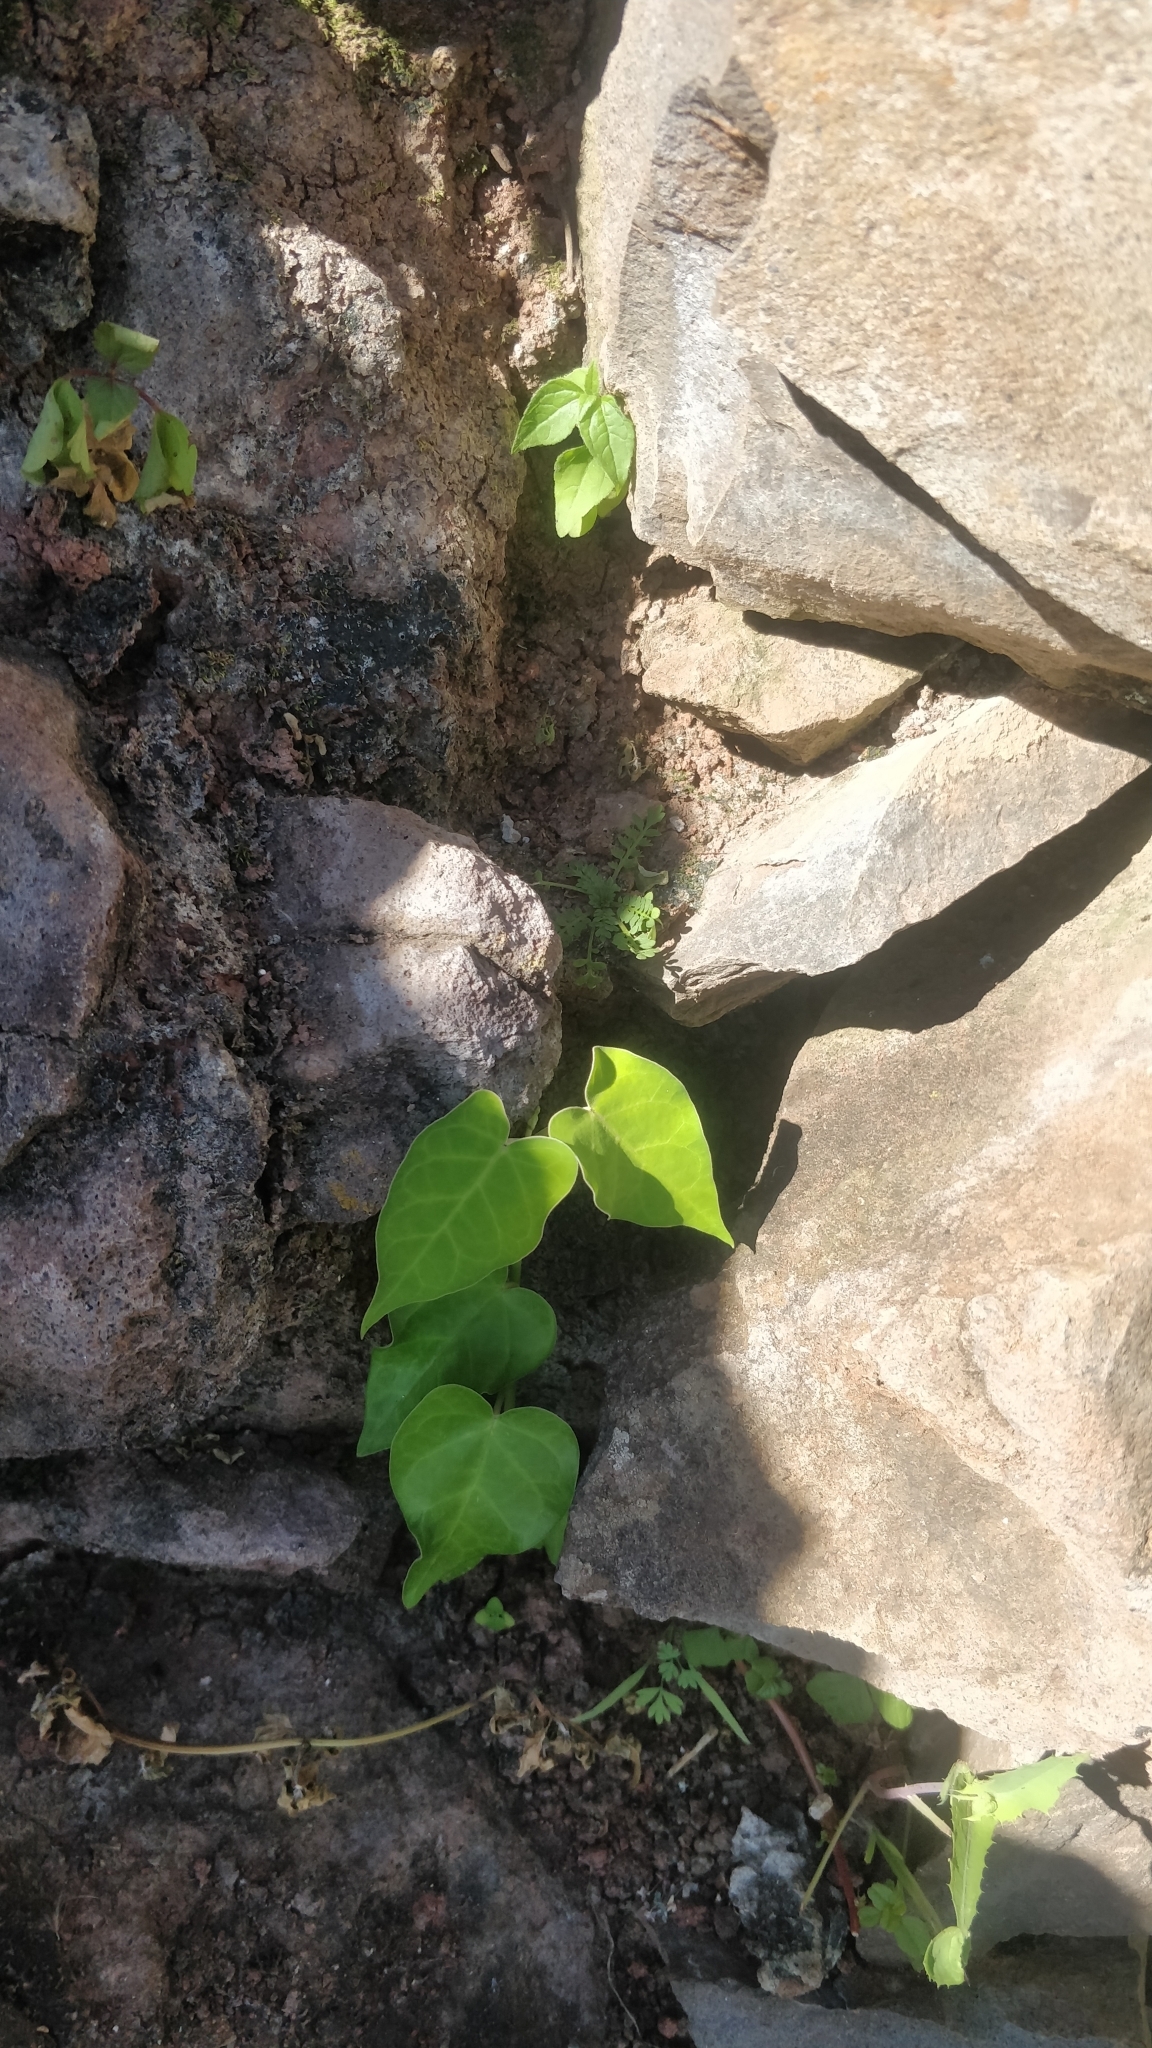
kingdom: Plantae
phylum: Tracheophyta
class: Magnoliopsida
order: Gentianales
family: Apocynaceae
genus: Araujia
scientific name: Araujia sericifera
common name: White bladderflower
